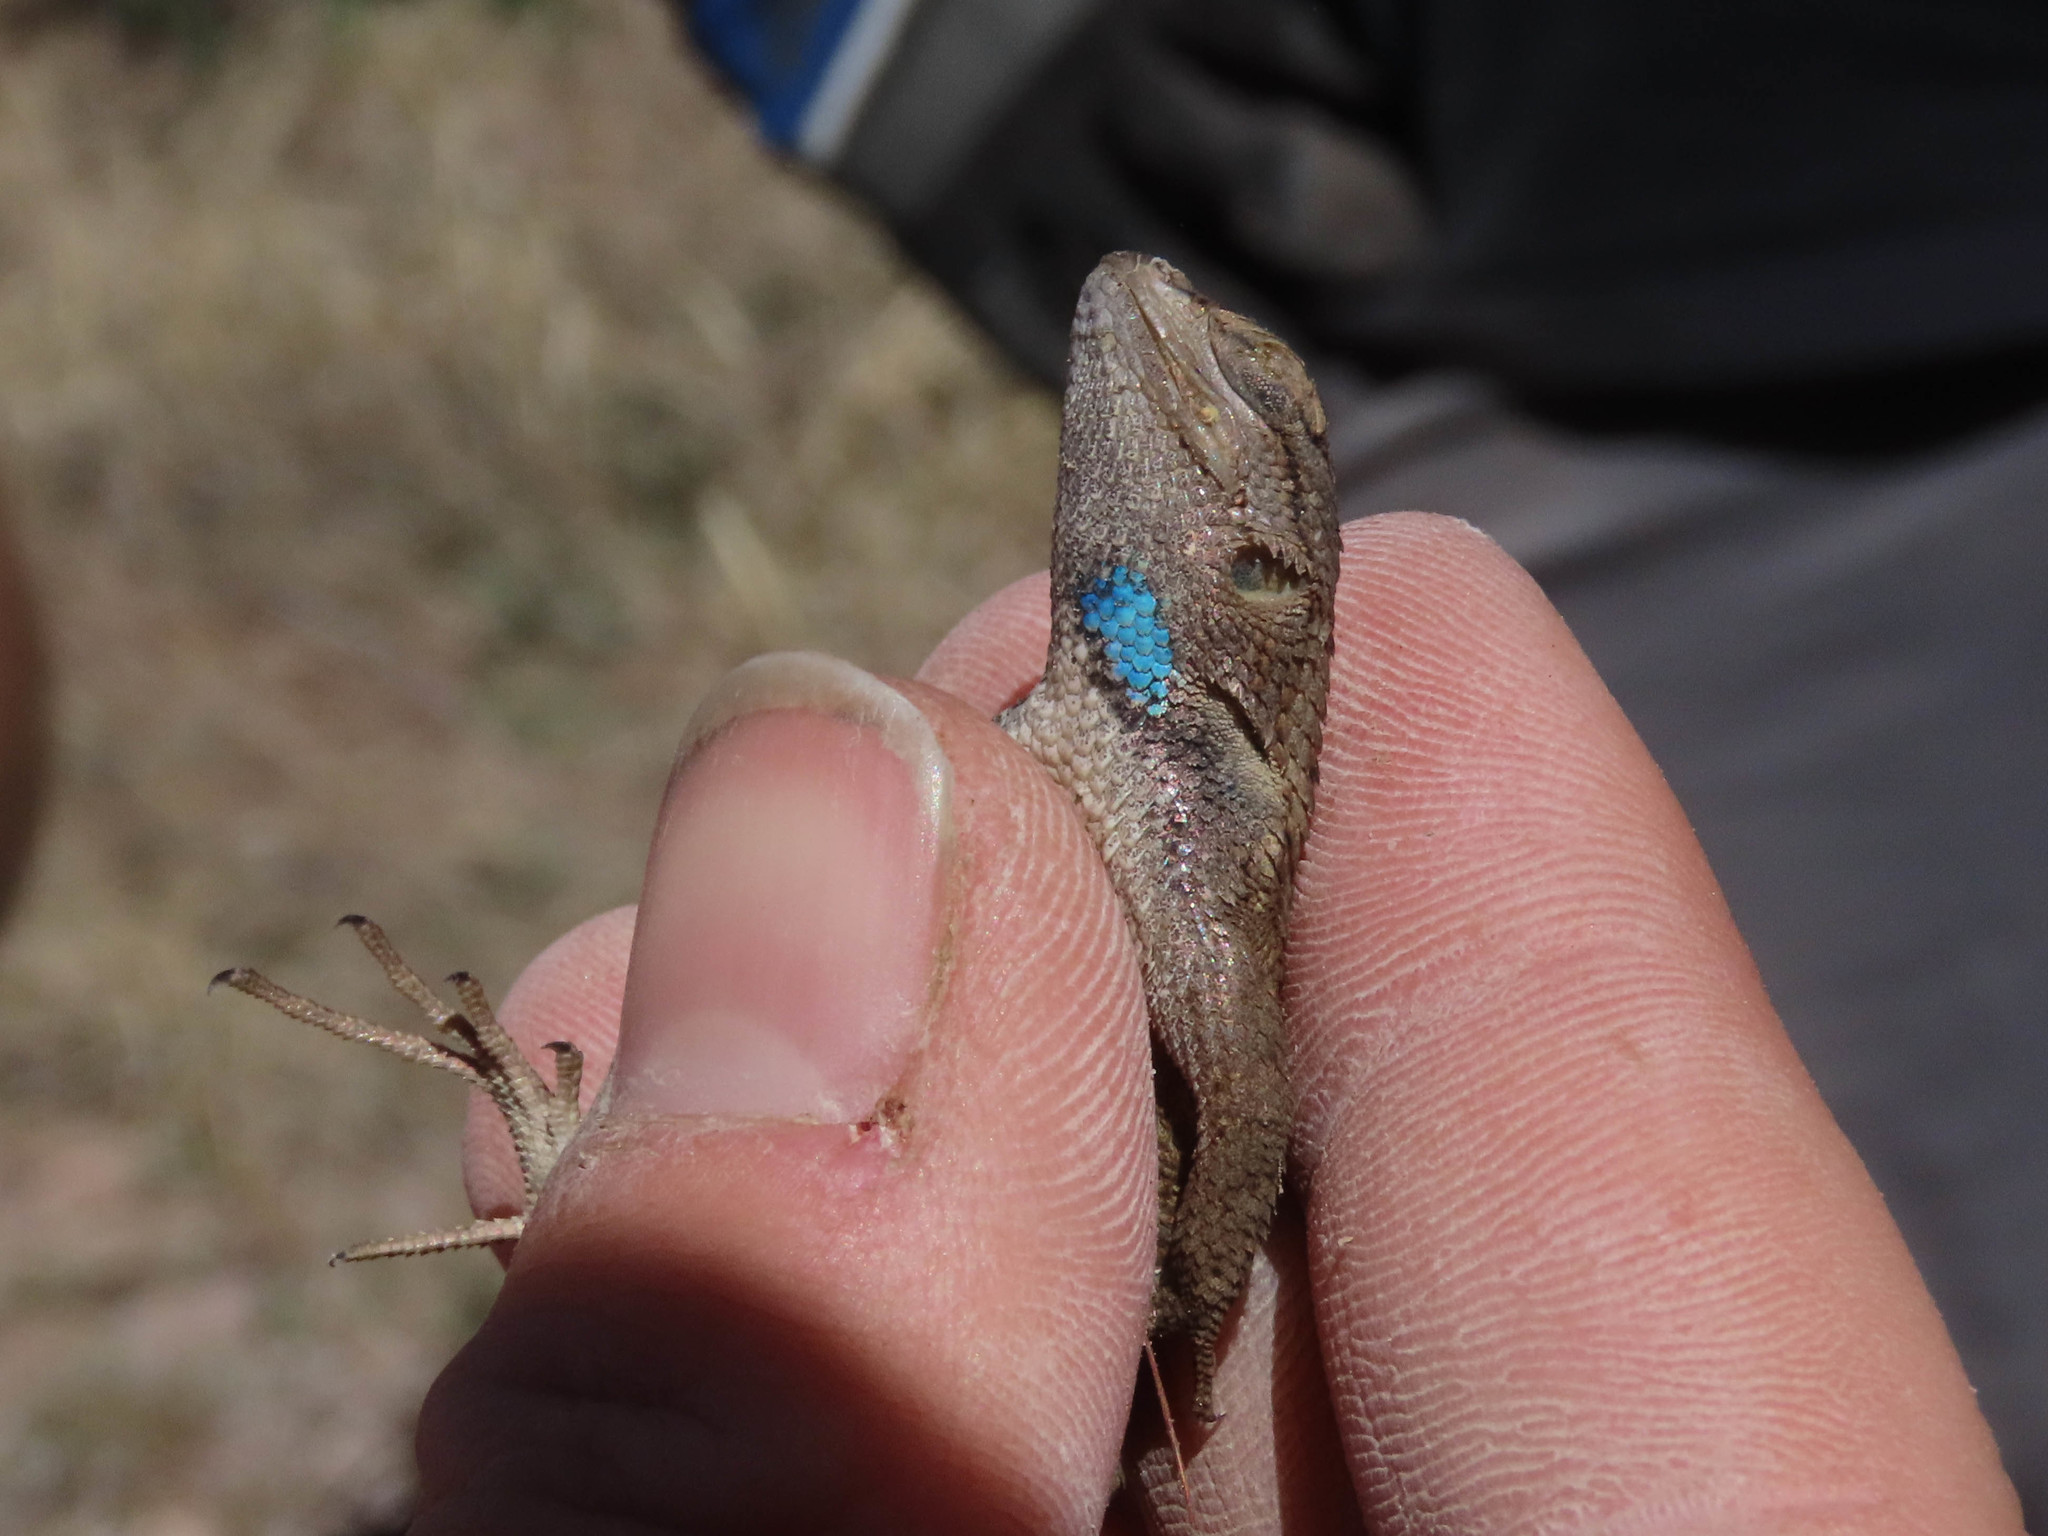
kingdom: Animalia
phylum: Chordata
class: Squamata
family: Phrynosomatidae
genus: Sceloporus
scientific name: Sceloporus cowlesi
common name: White sands prairie lizard
